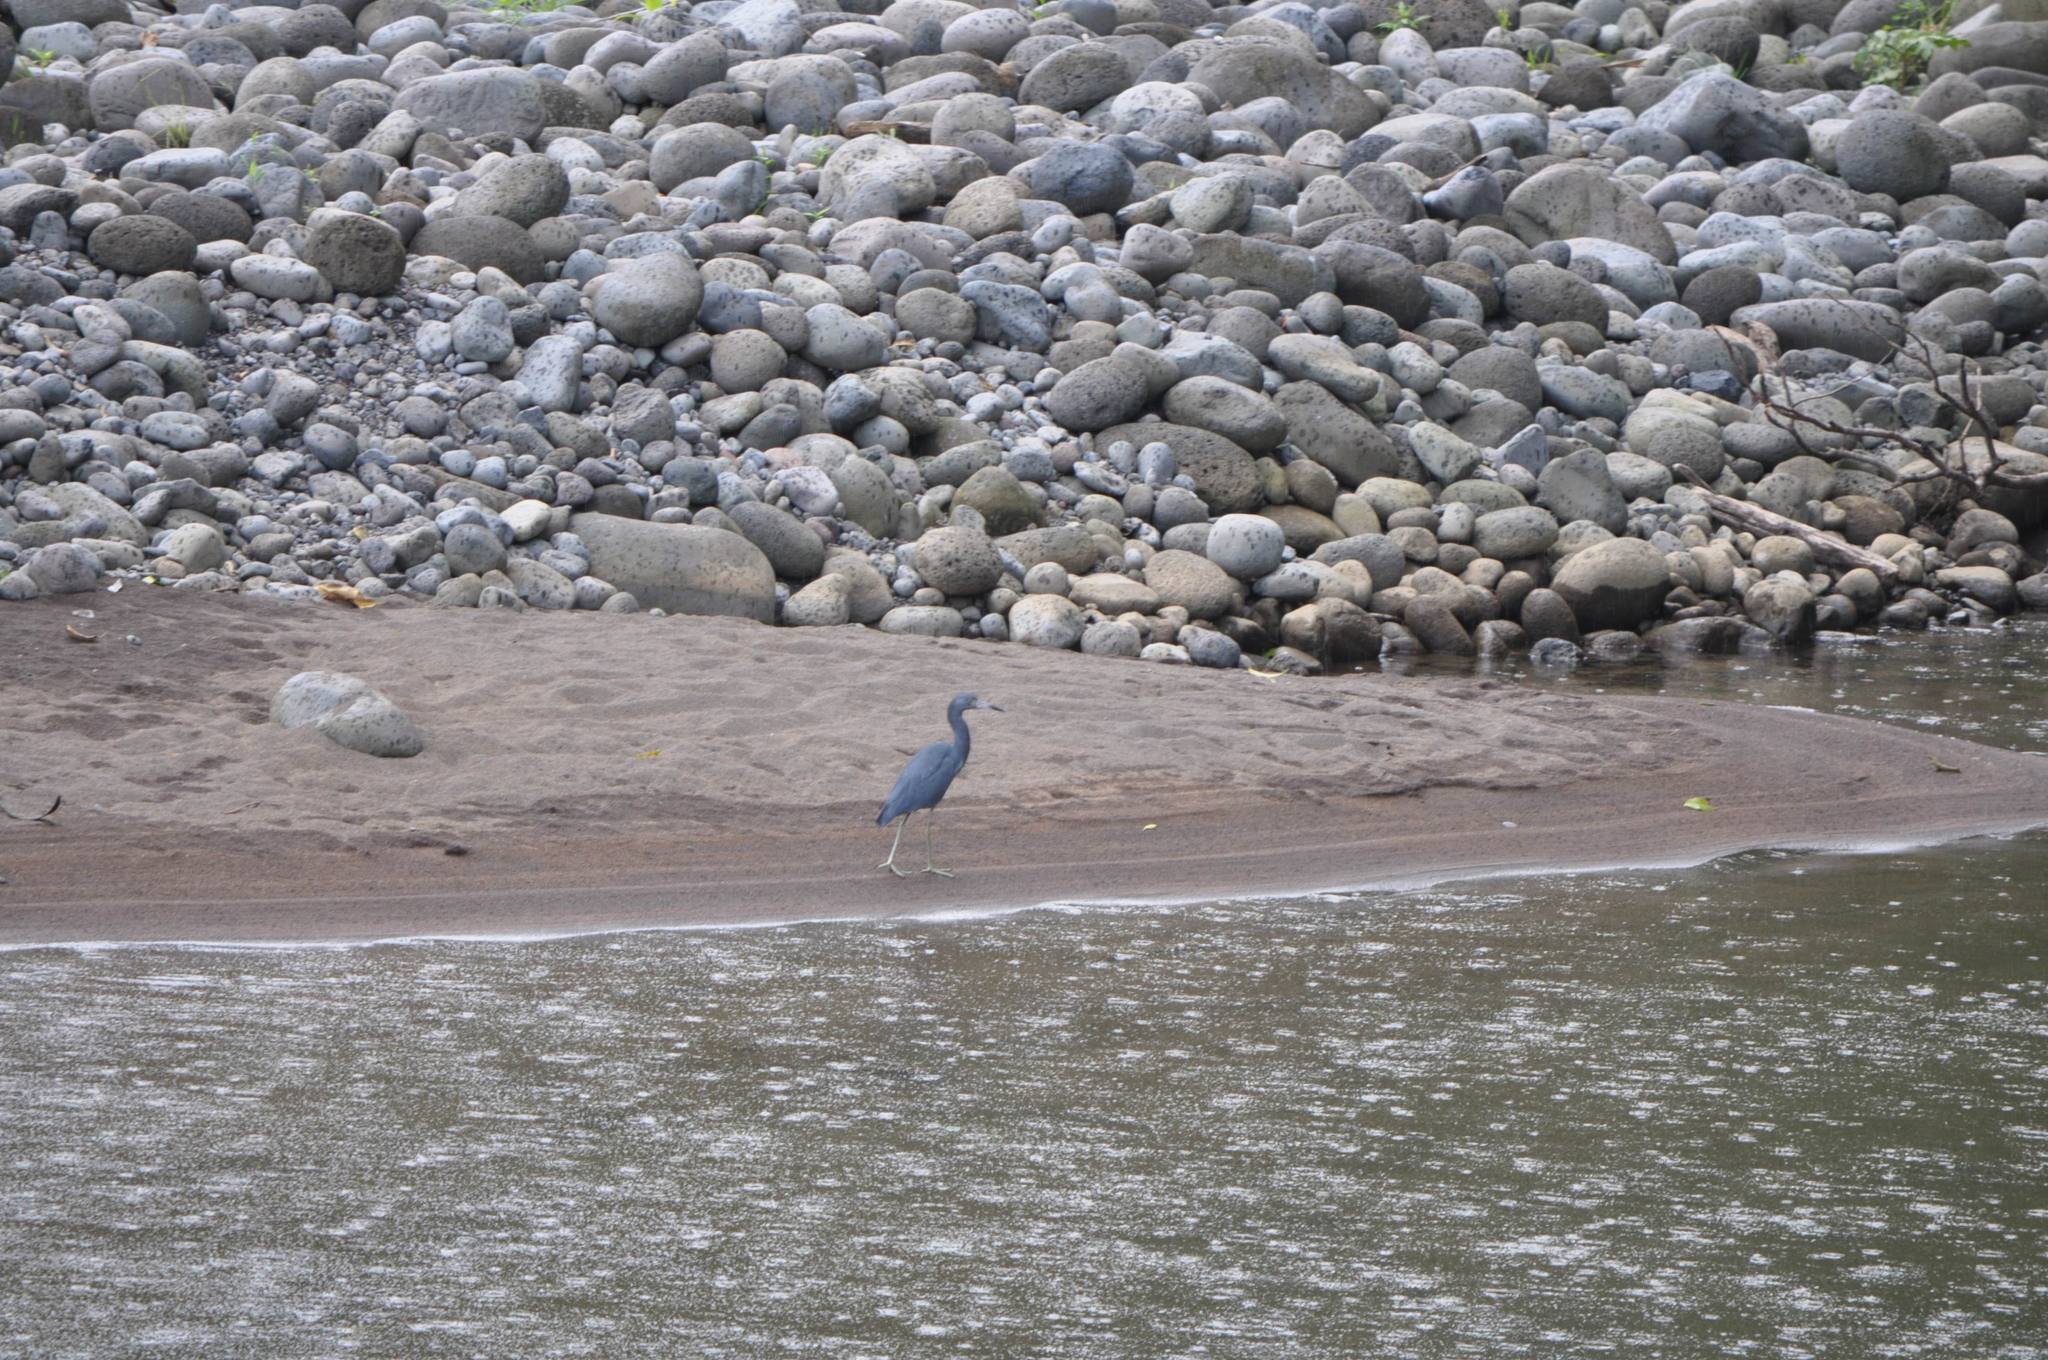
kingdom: Animalia
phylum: Chordata
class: Aves
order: Pelecaniformes
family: Ardeidae
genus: Egretta
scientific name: Egretta caerulea
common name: Little blue heron
